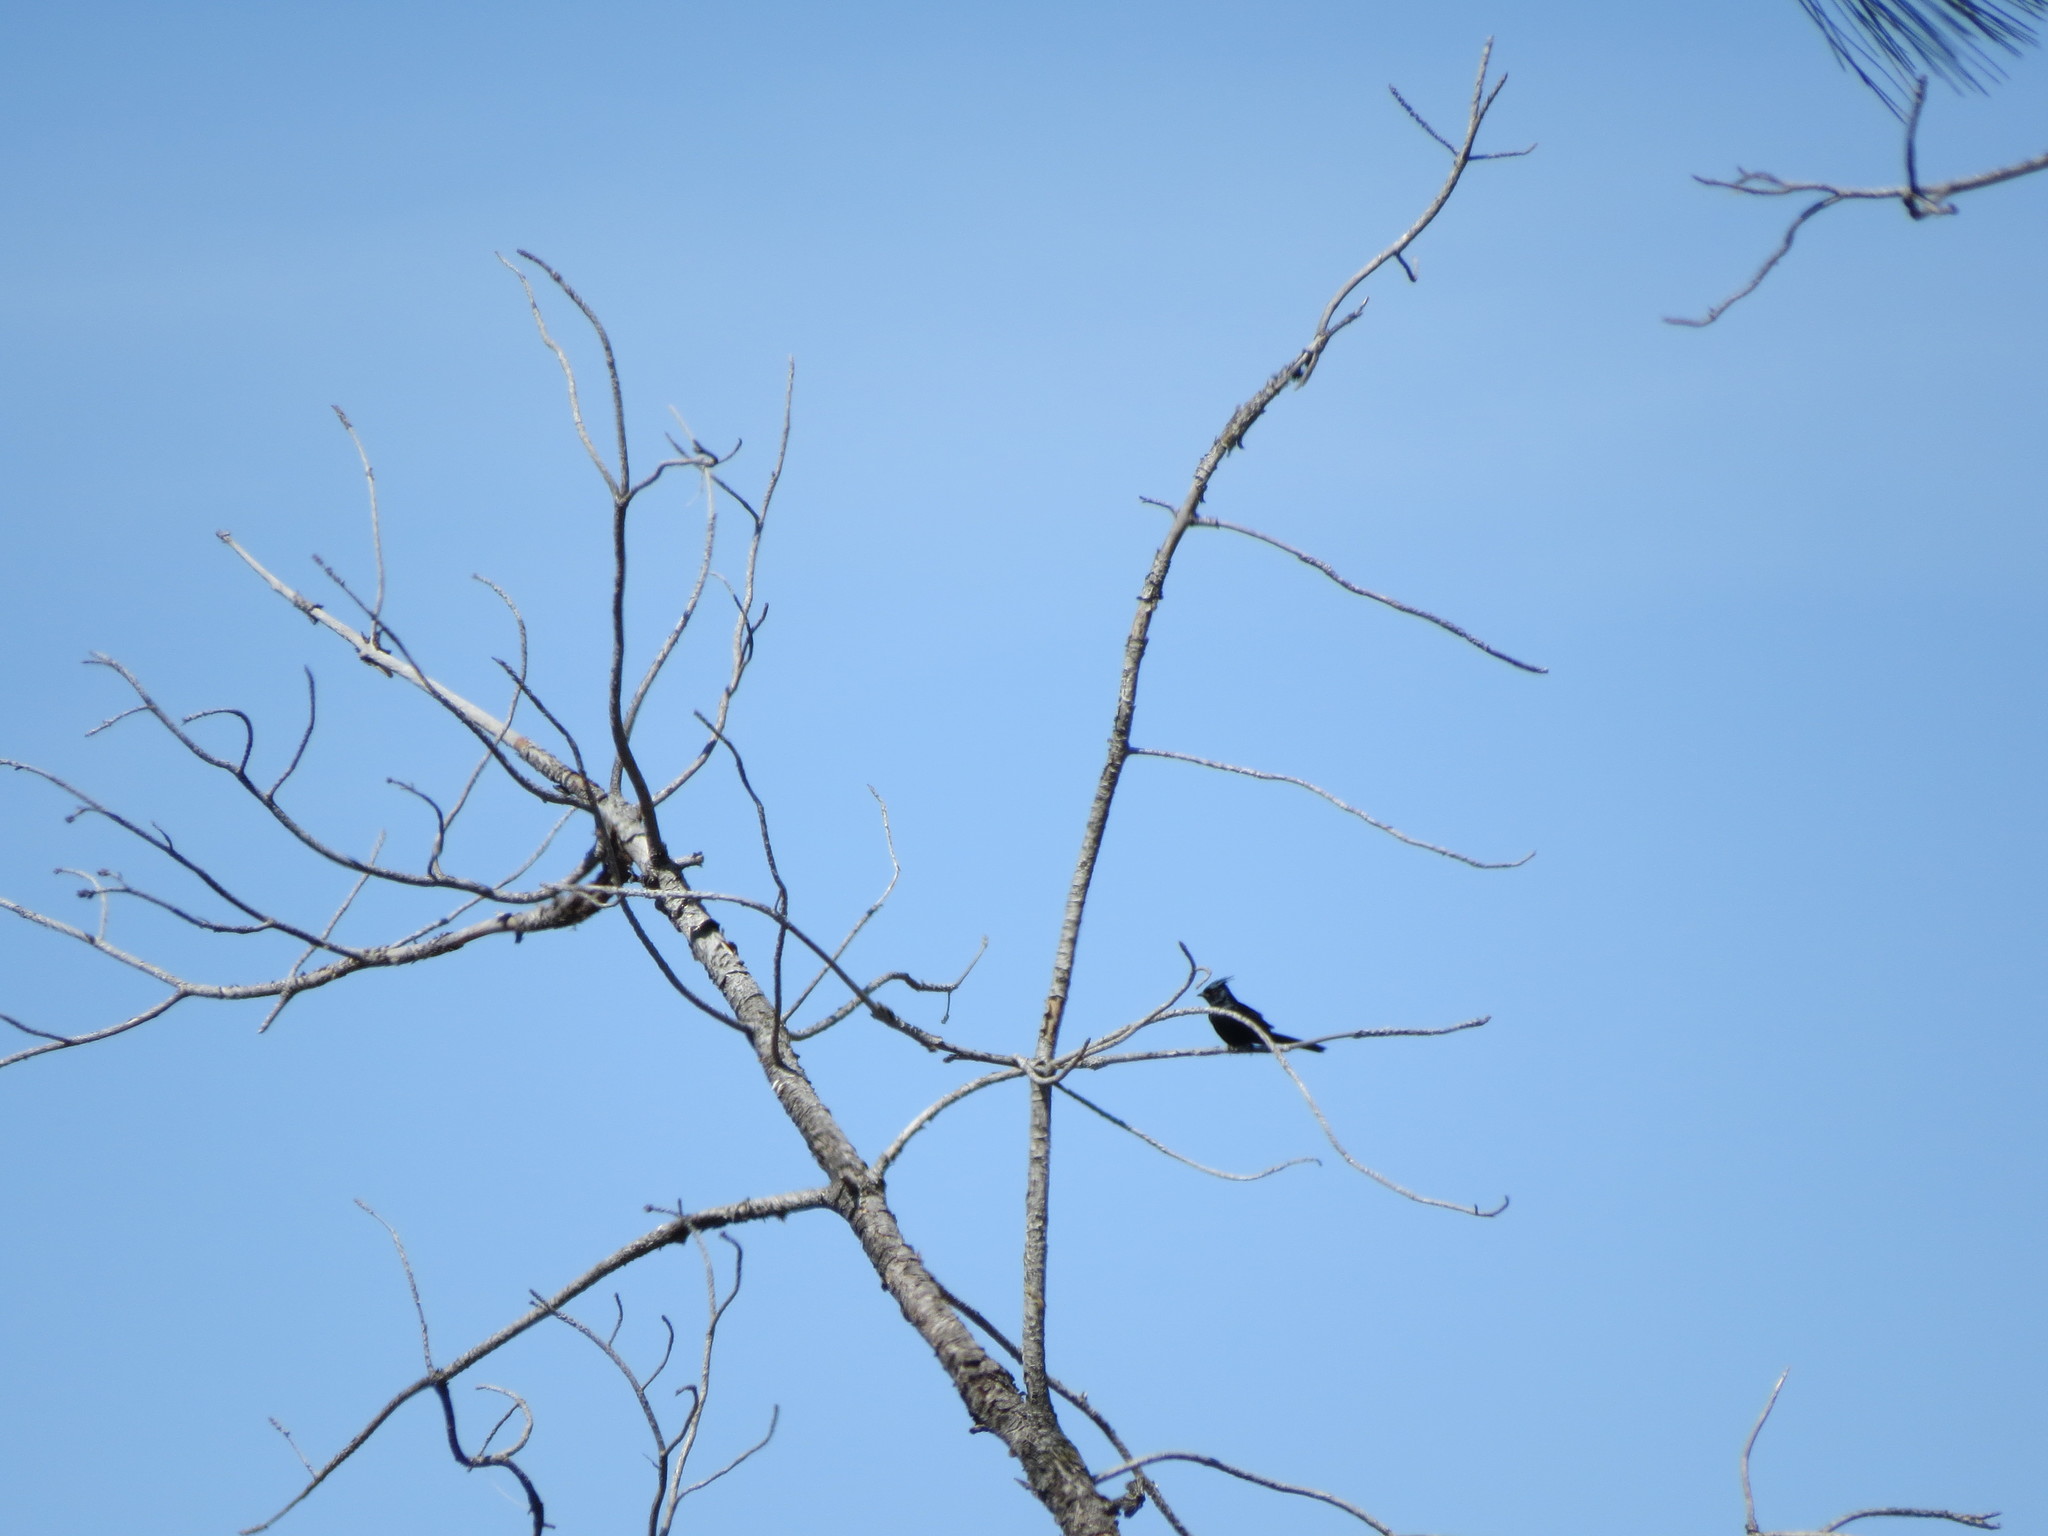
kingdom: Animalia
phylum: Chordata
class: Aves
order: Passeriformes
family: Ptilogonatidae
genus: Phainopepla
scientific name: Phainopepla nitens
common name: Phainopepla
